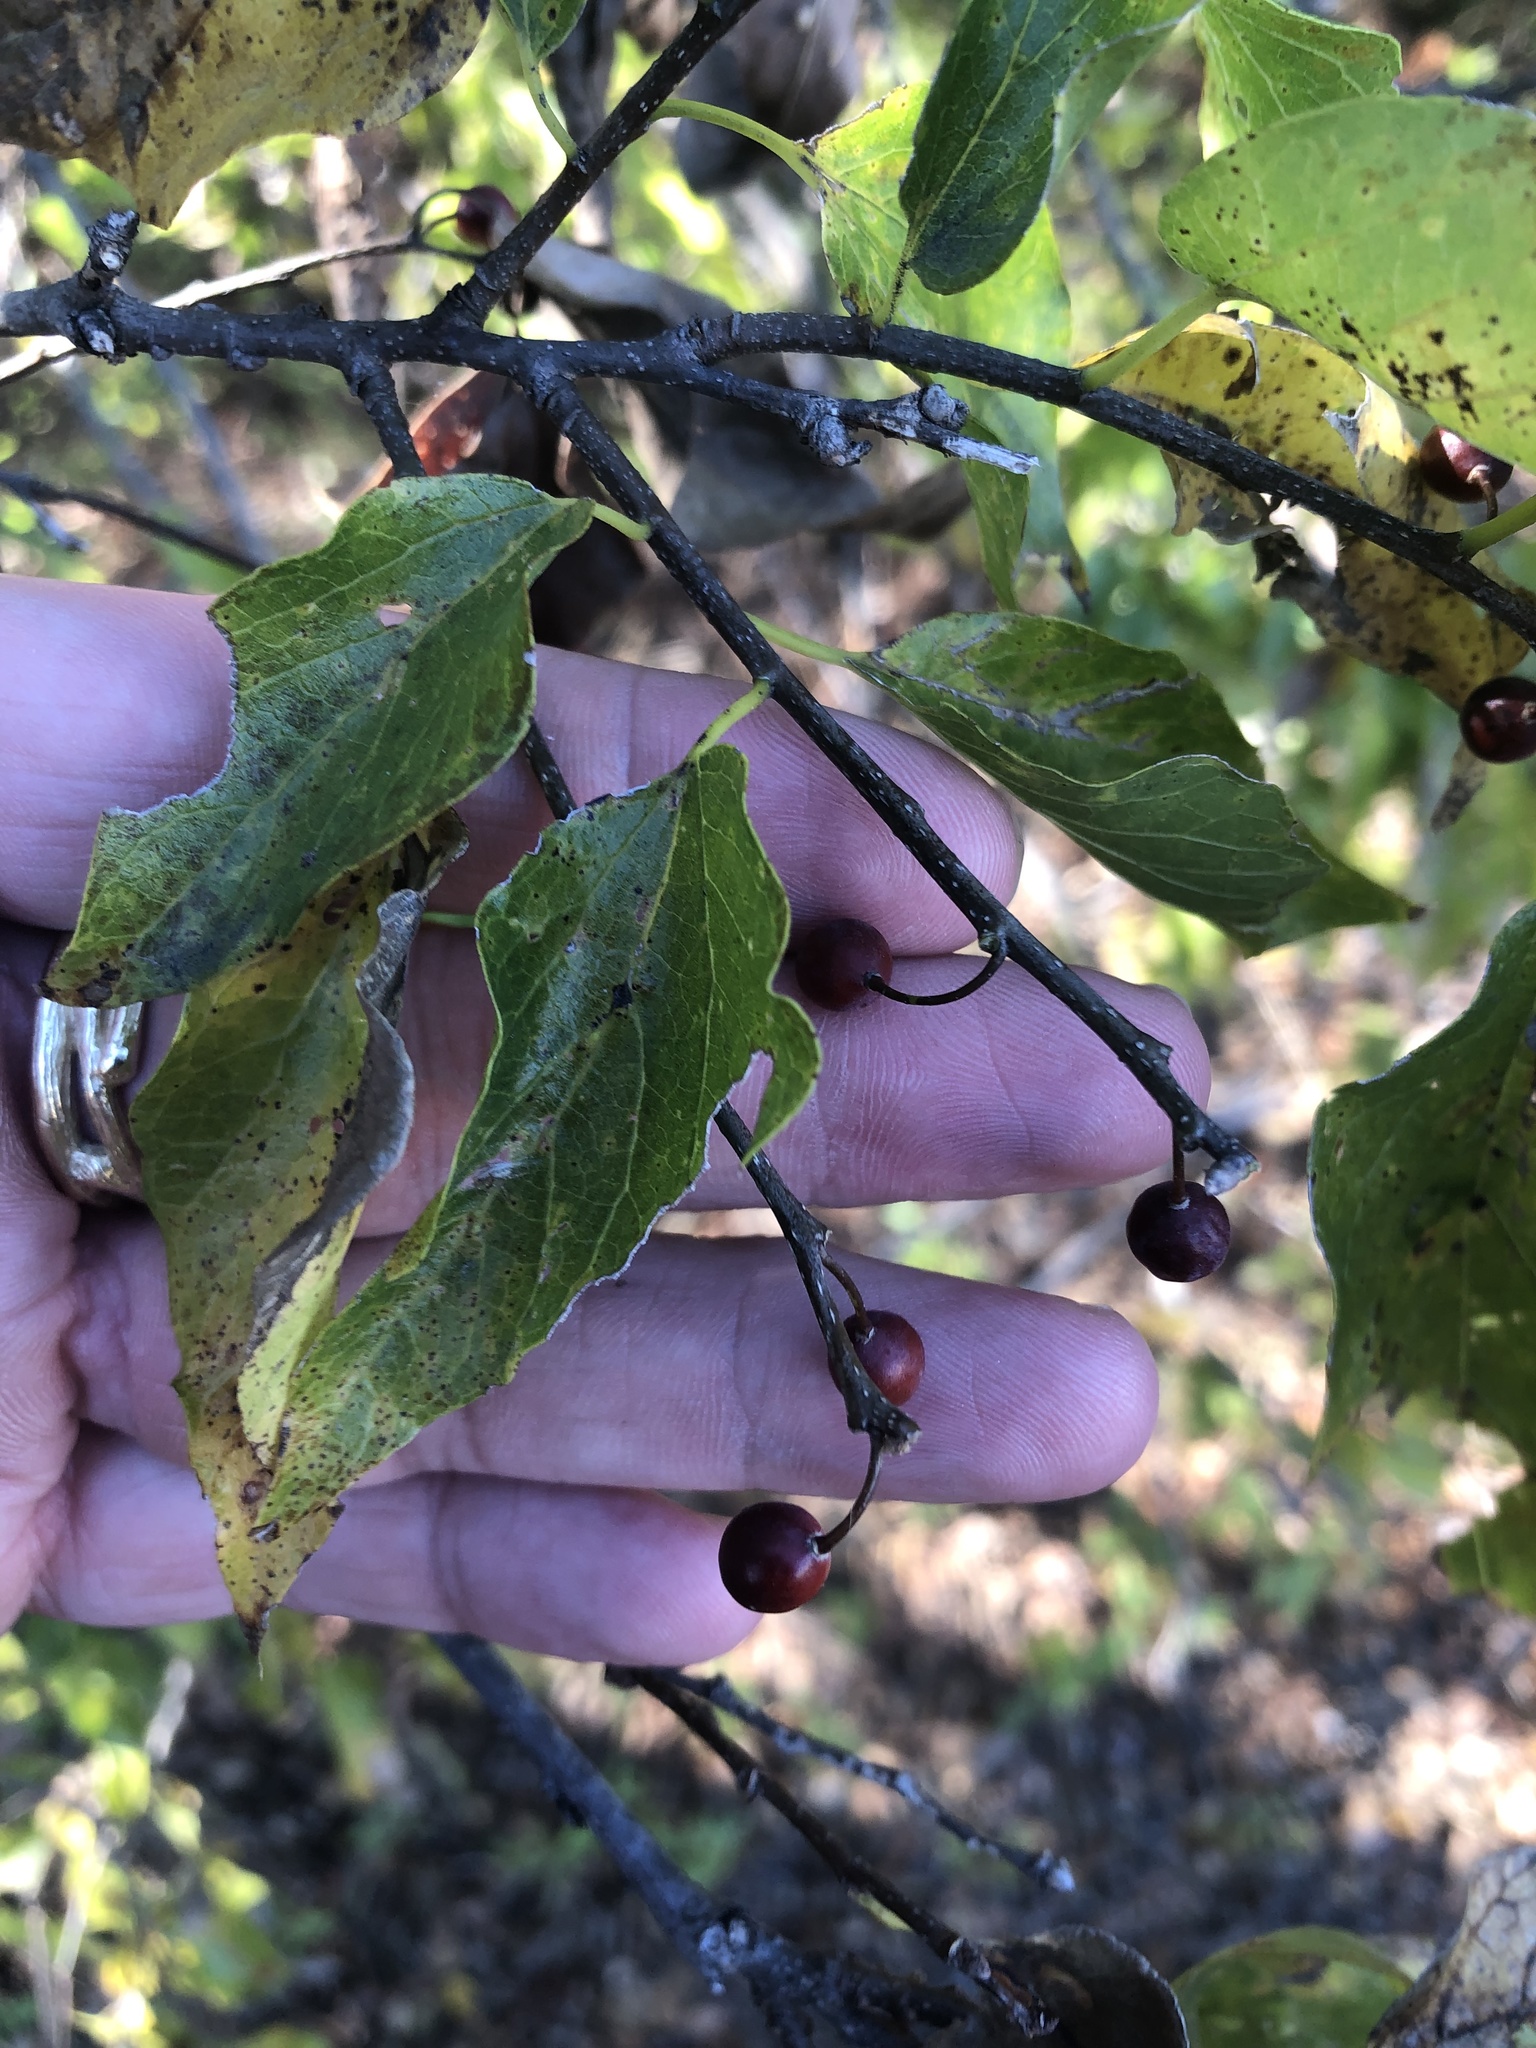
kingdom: Plantae
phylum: Tracheophyta
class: Magnoliopsida
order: Rosales
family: Cannabaceae
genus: Celtis
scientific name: Celtis laevigata
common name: Sugarberry
